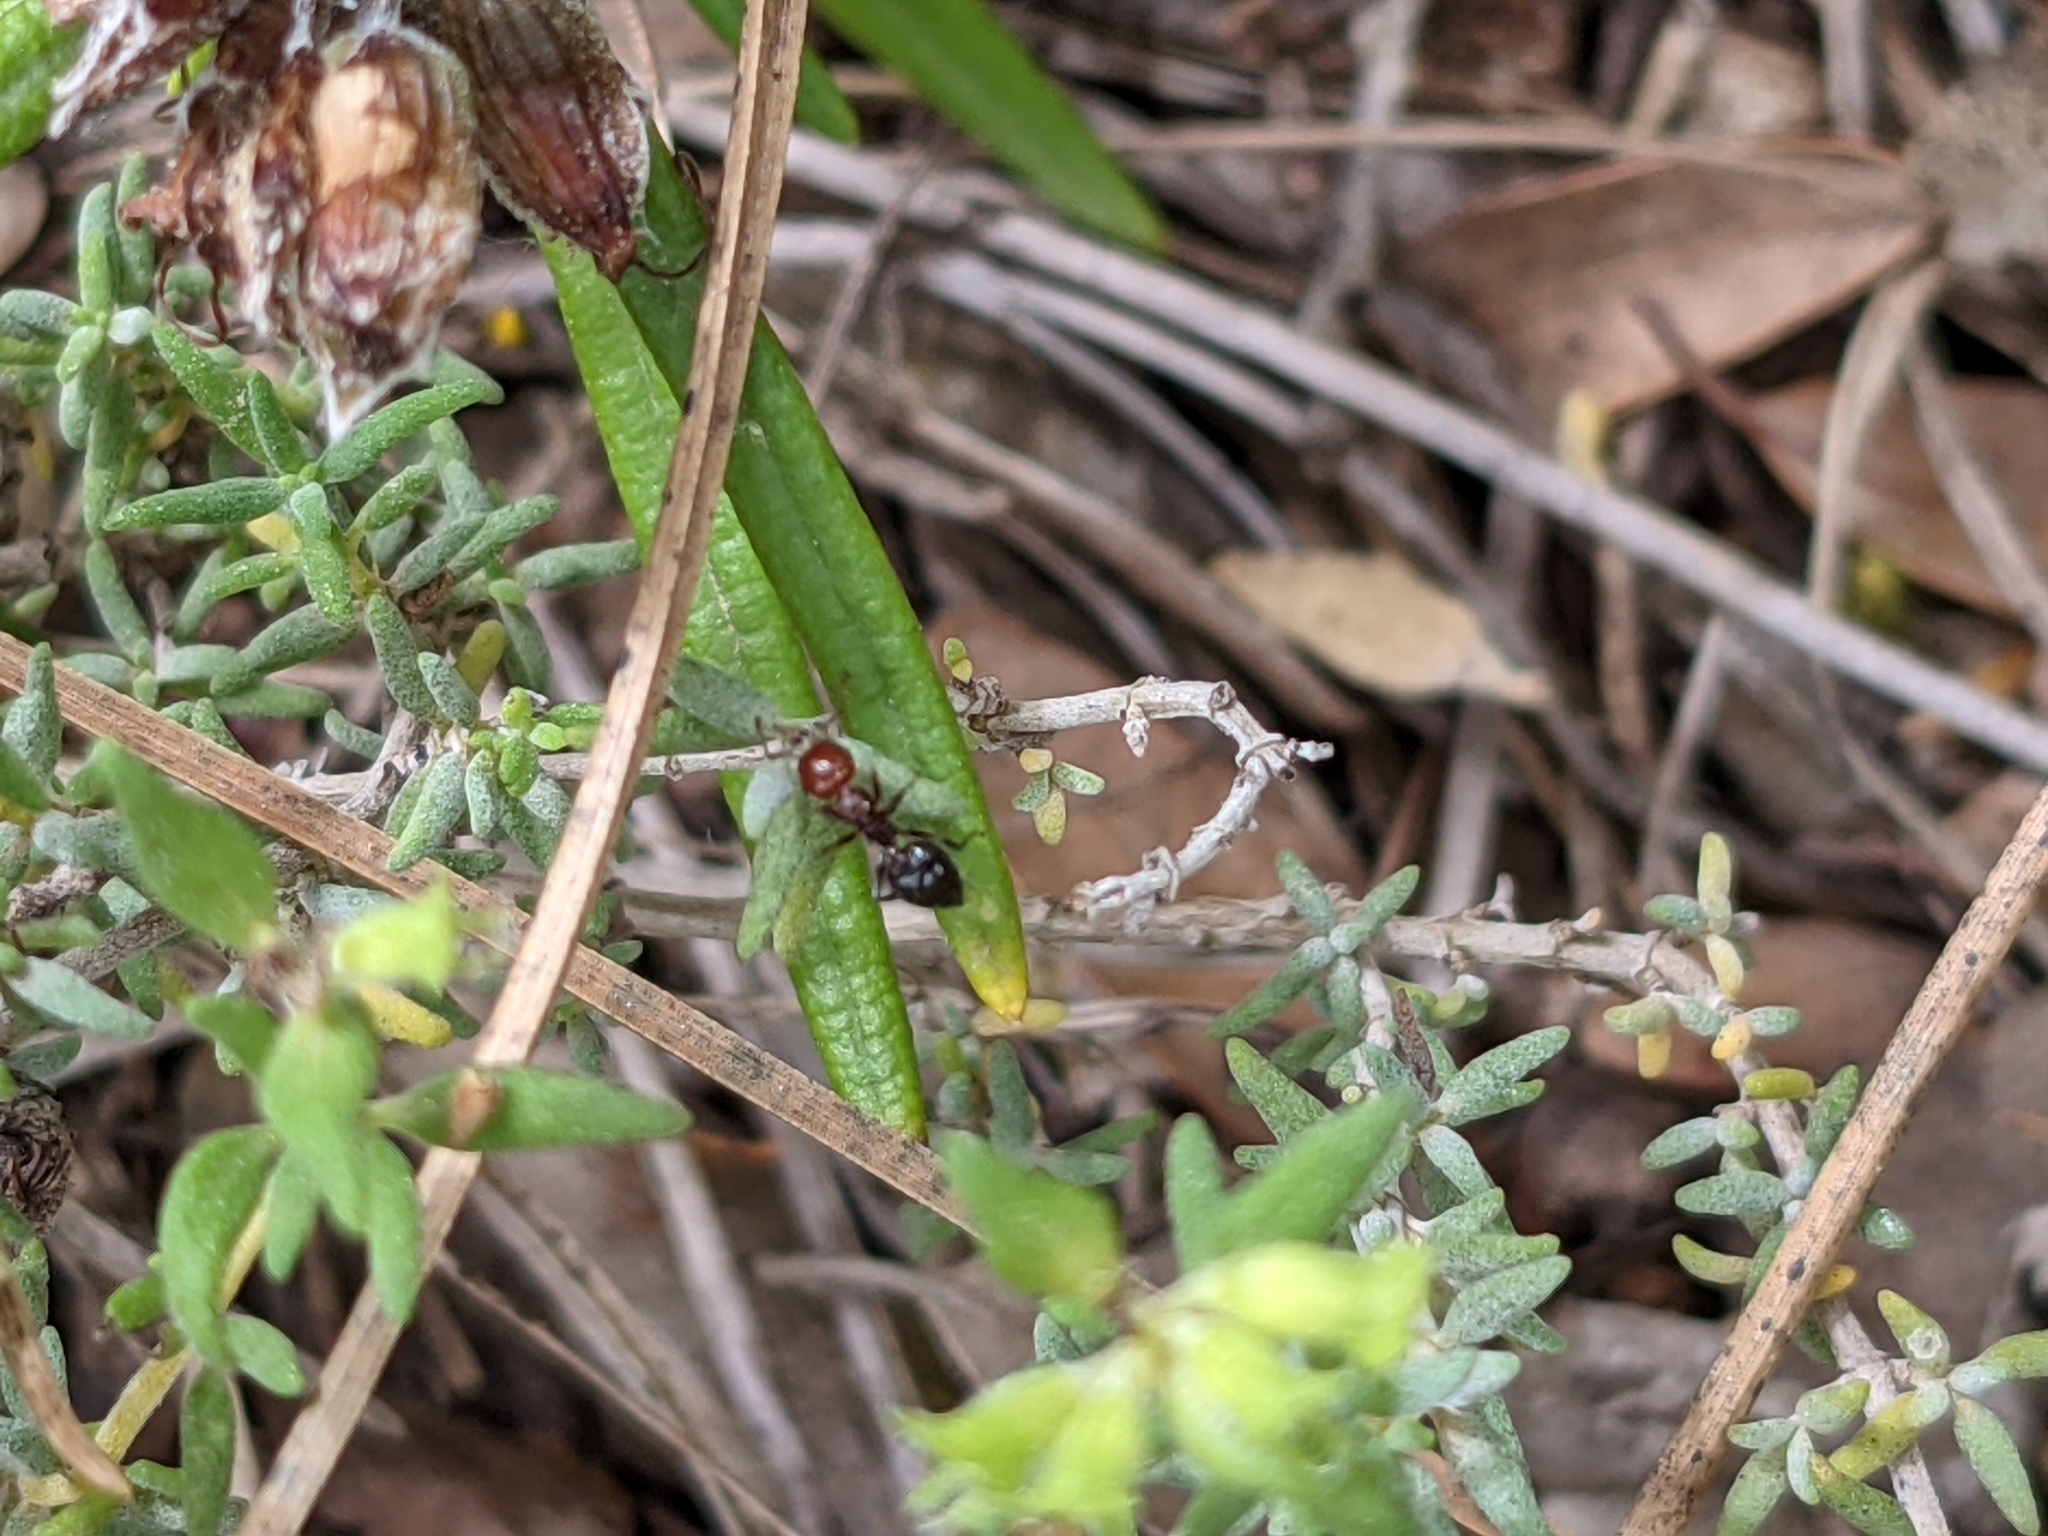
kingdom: Animalia
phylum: Arthropoda
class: Insecta
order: Hymenoptera
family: Formicidae
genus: Crematogaster
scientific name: Crematogaster scutellaris
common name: Fourmi du liège
